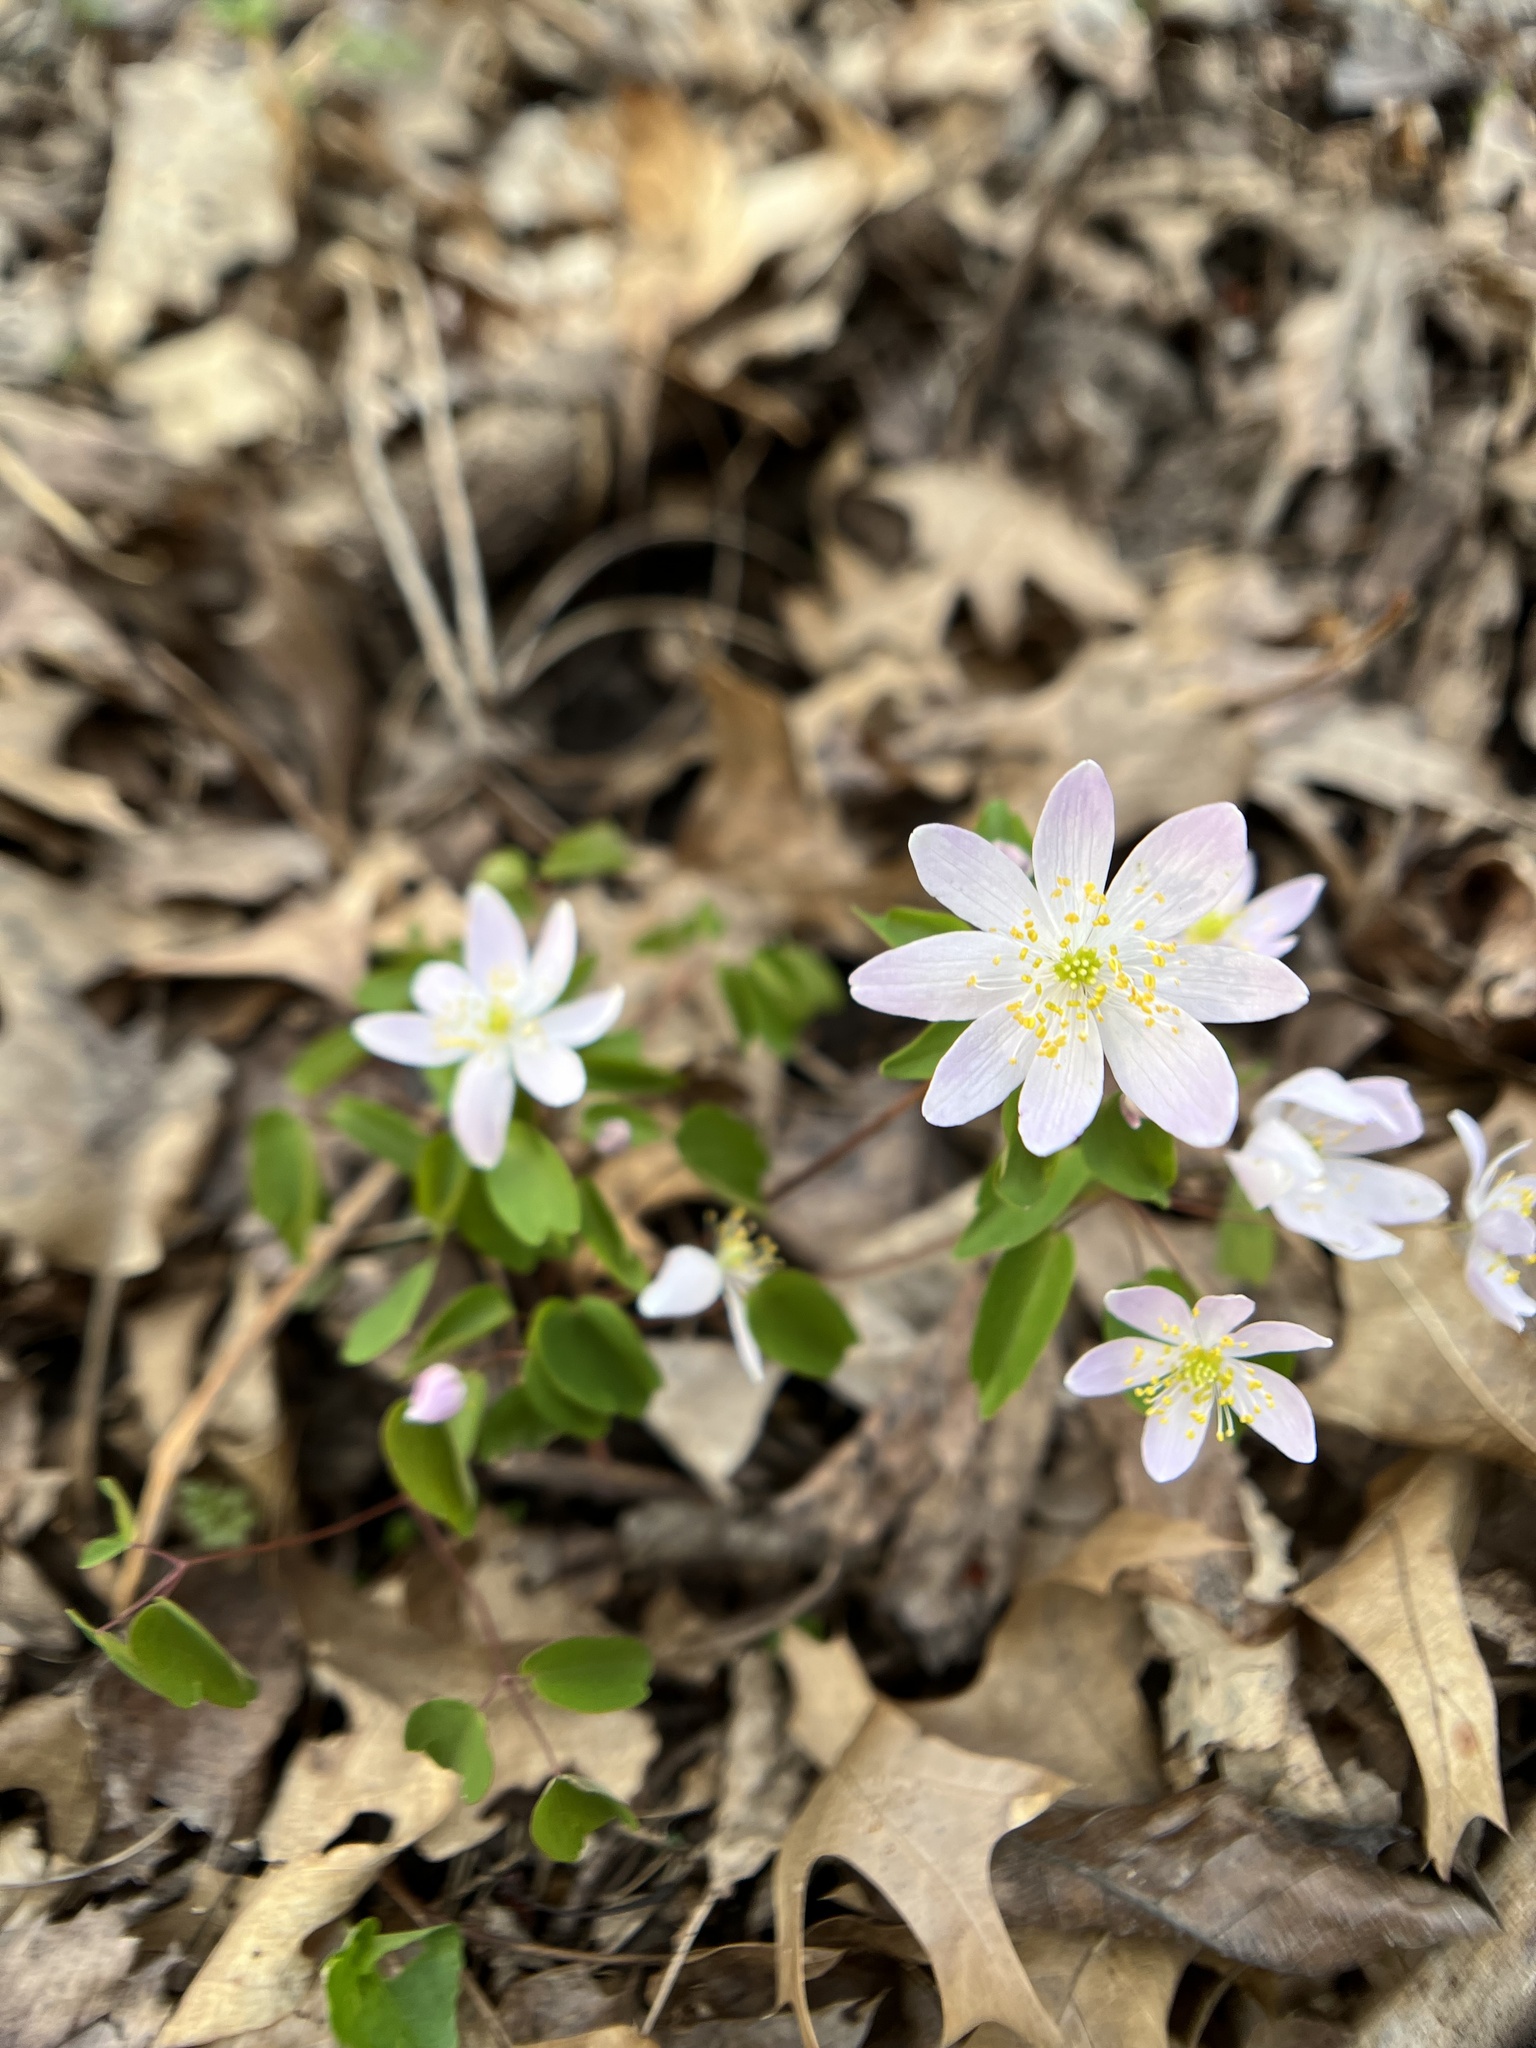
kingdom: Plantae
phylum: Tracheophyta
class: Magnoliopsida
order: Ranunculales
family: Ranunculaceae
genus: Thalictrum
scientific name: Thalictrum thalictroides
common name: Rue-anemone
